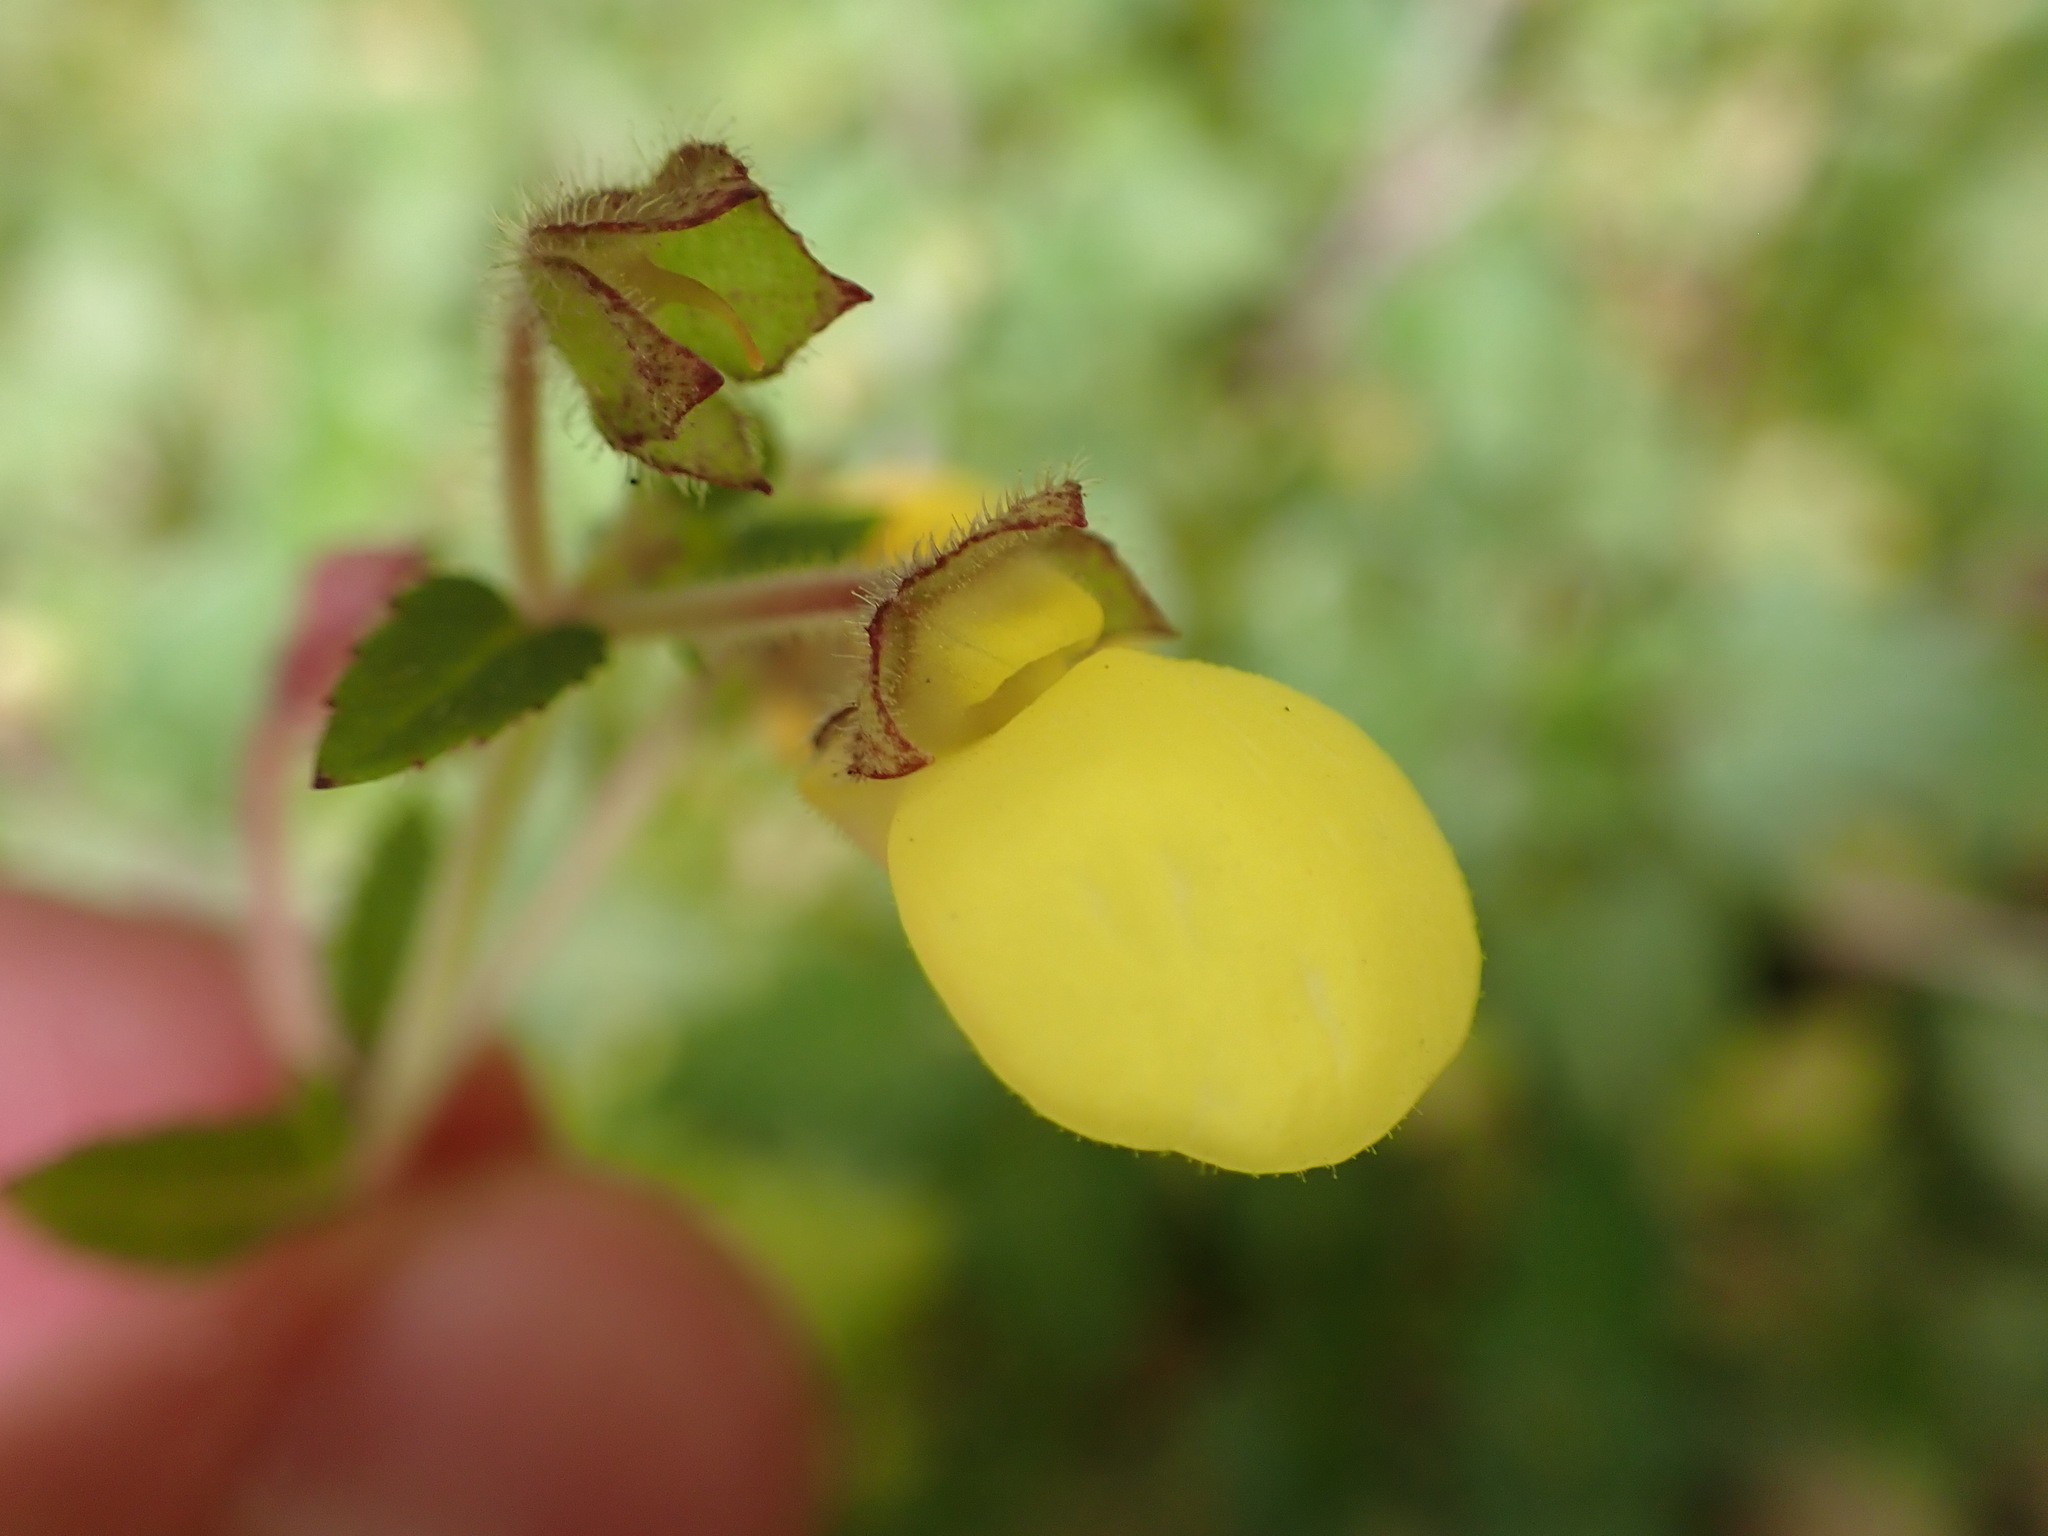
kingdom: Plantae
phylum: Tracheophyta
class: Magnoliopsida
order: Lamiales
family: Calceolariaceae
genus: Calceolaria
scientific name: Calceolaria tripartita
